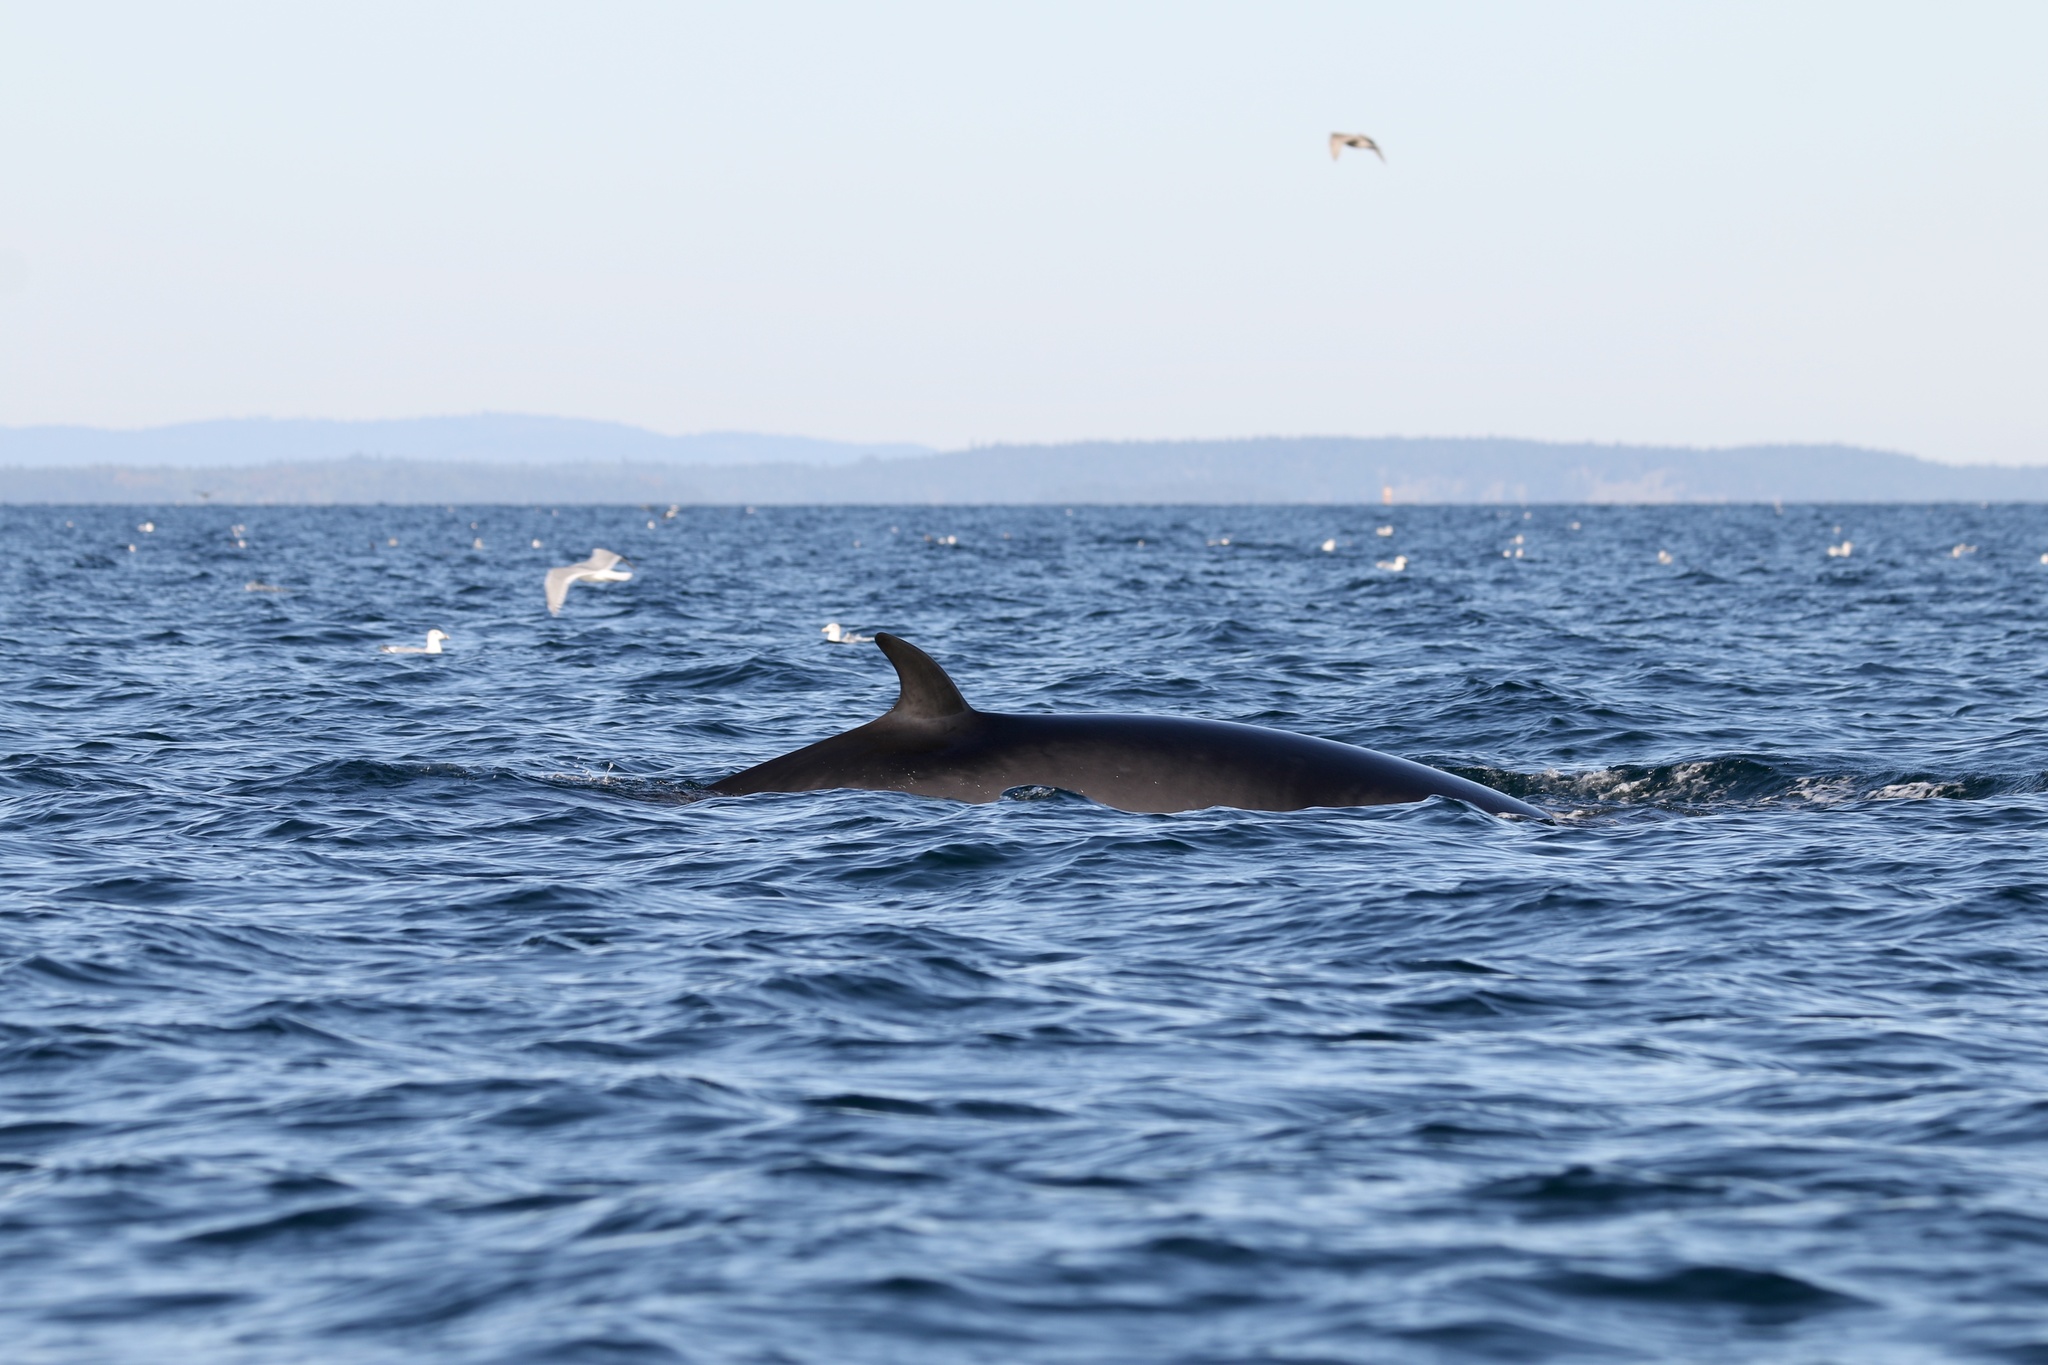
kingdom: Animalia
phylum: Chordata
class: Mammalia
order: Cetacea
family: Balaenopteridae
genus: Balaenoptera
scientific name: Balaenoptera acutorostrata
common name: Common minke whale
